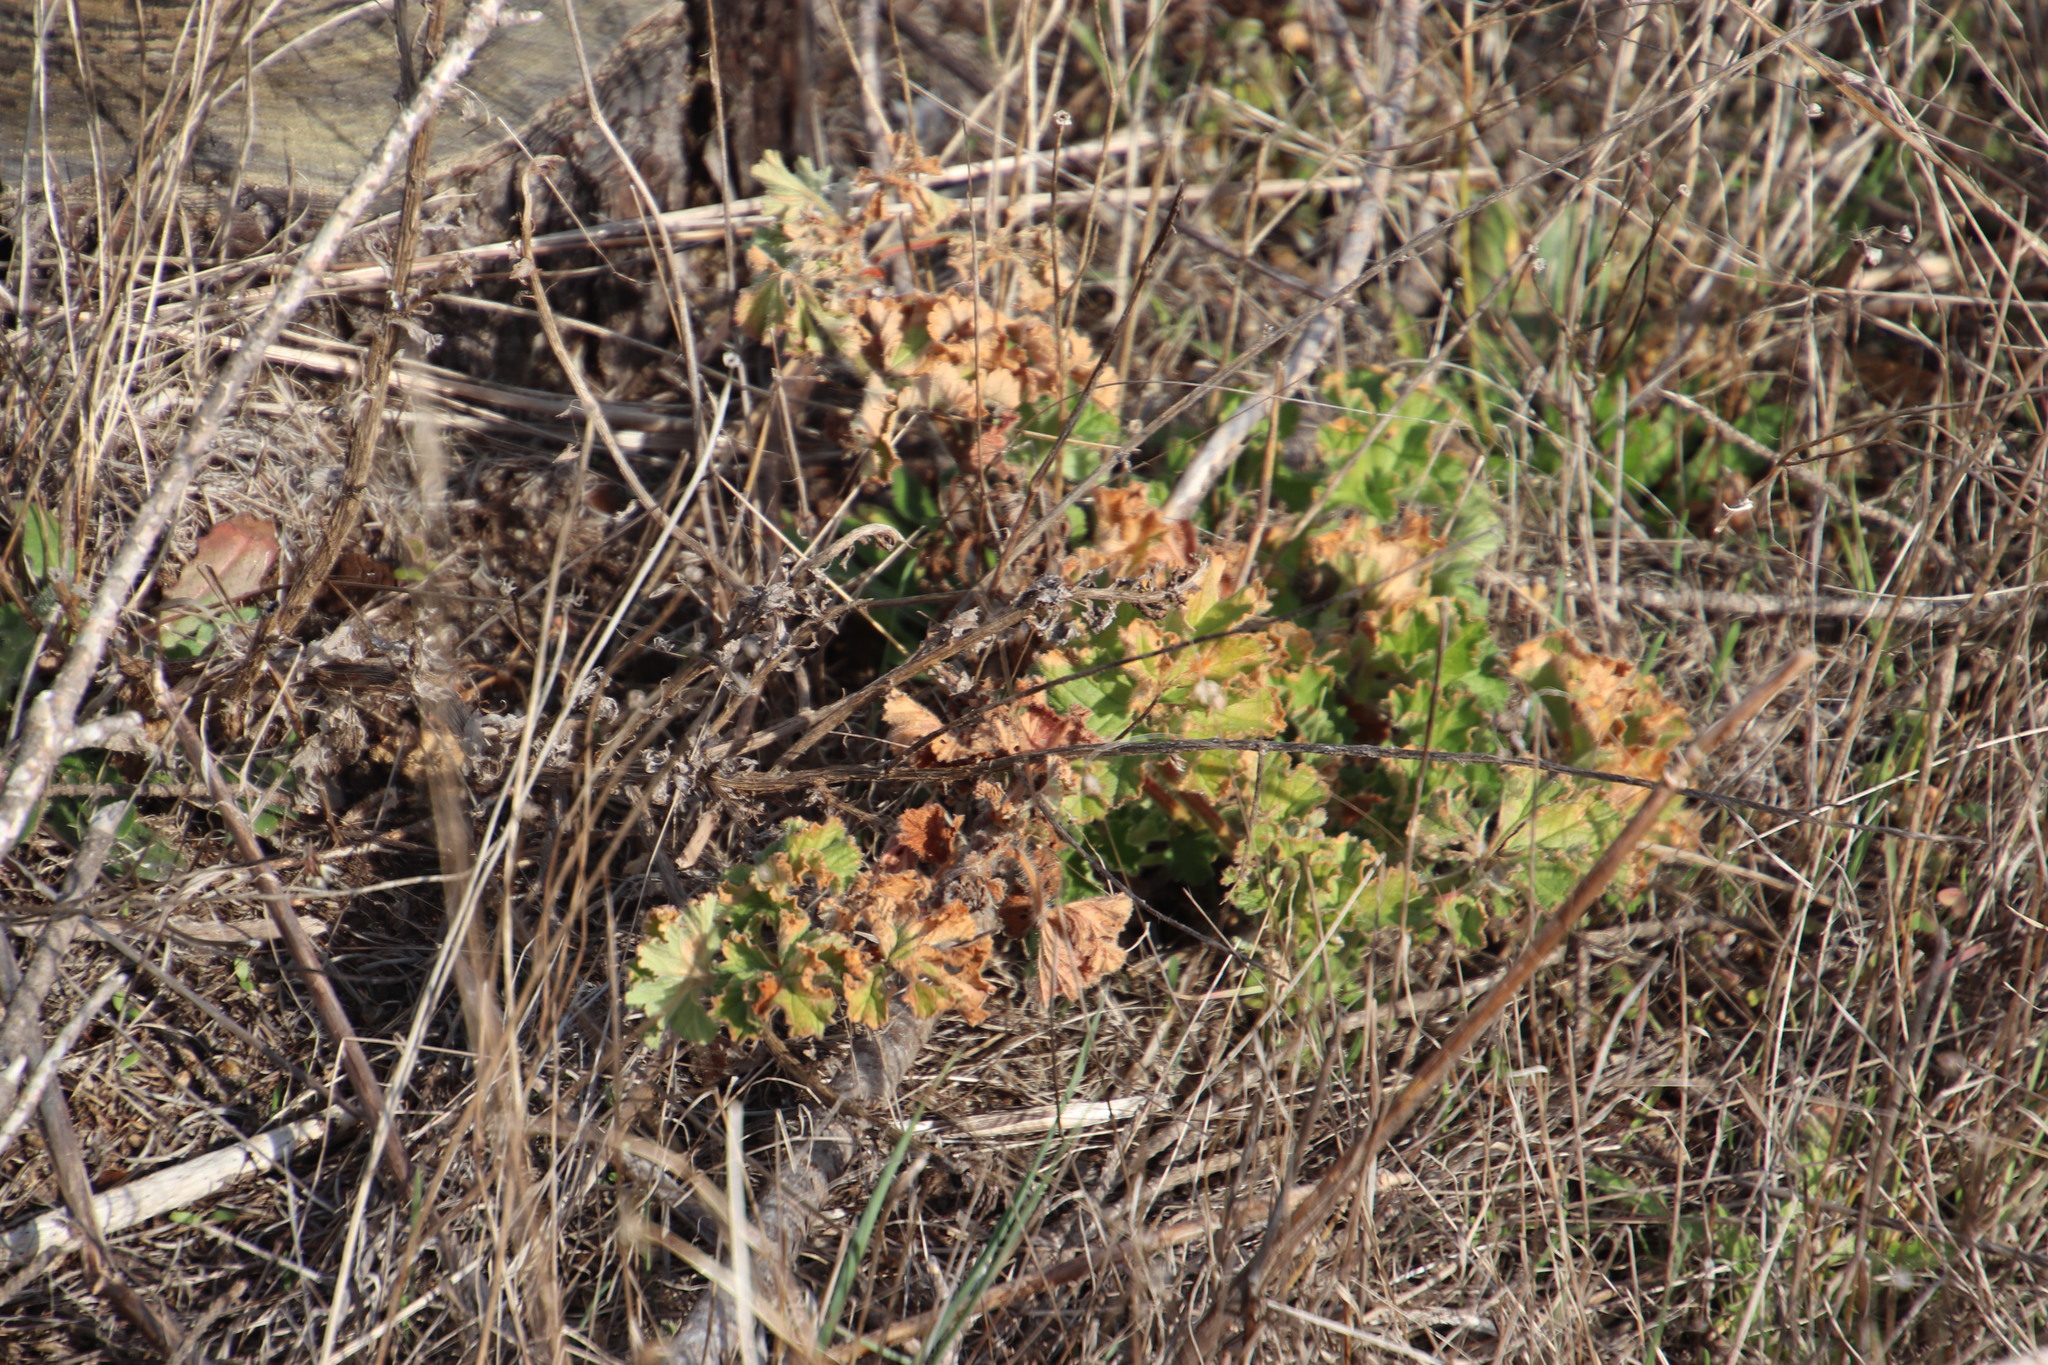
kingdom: Plantae
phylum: Tracheophyta
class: Magnoliopsida
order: Geraniales
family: Geraniaceae
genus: Pelargonium
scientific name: Pelargonium capitatum
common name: Rose scented geranium
